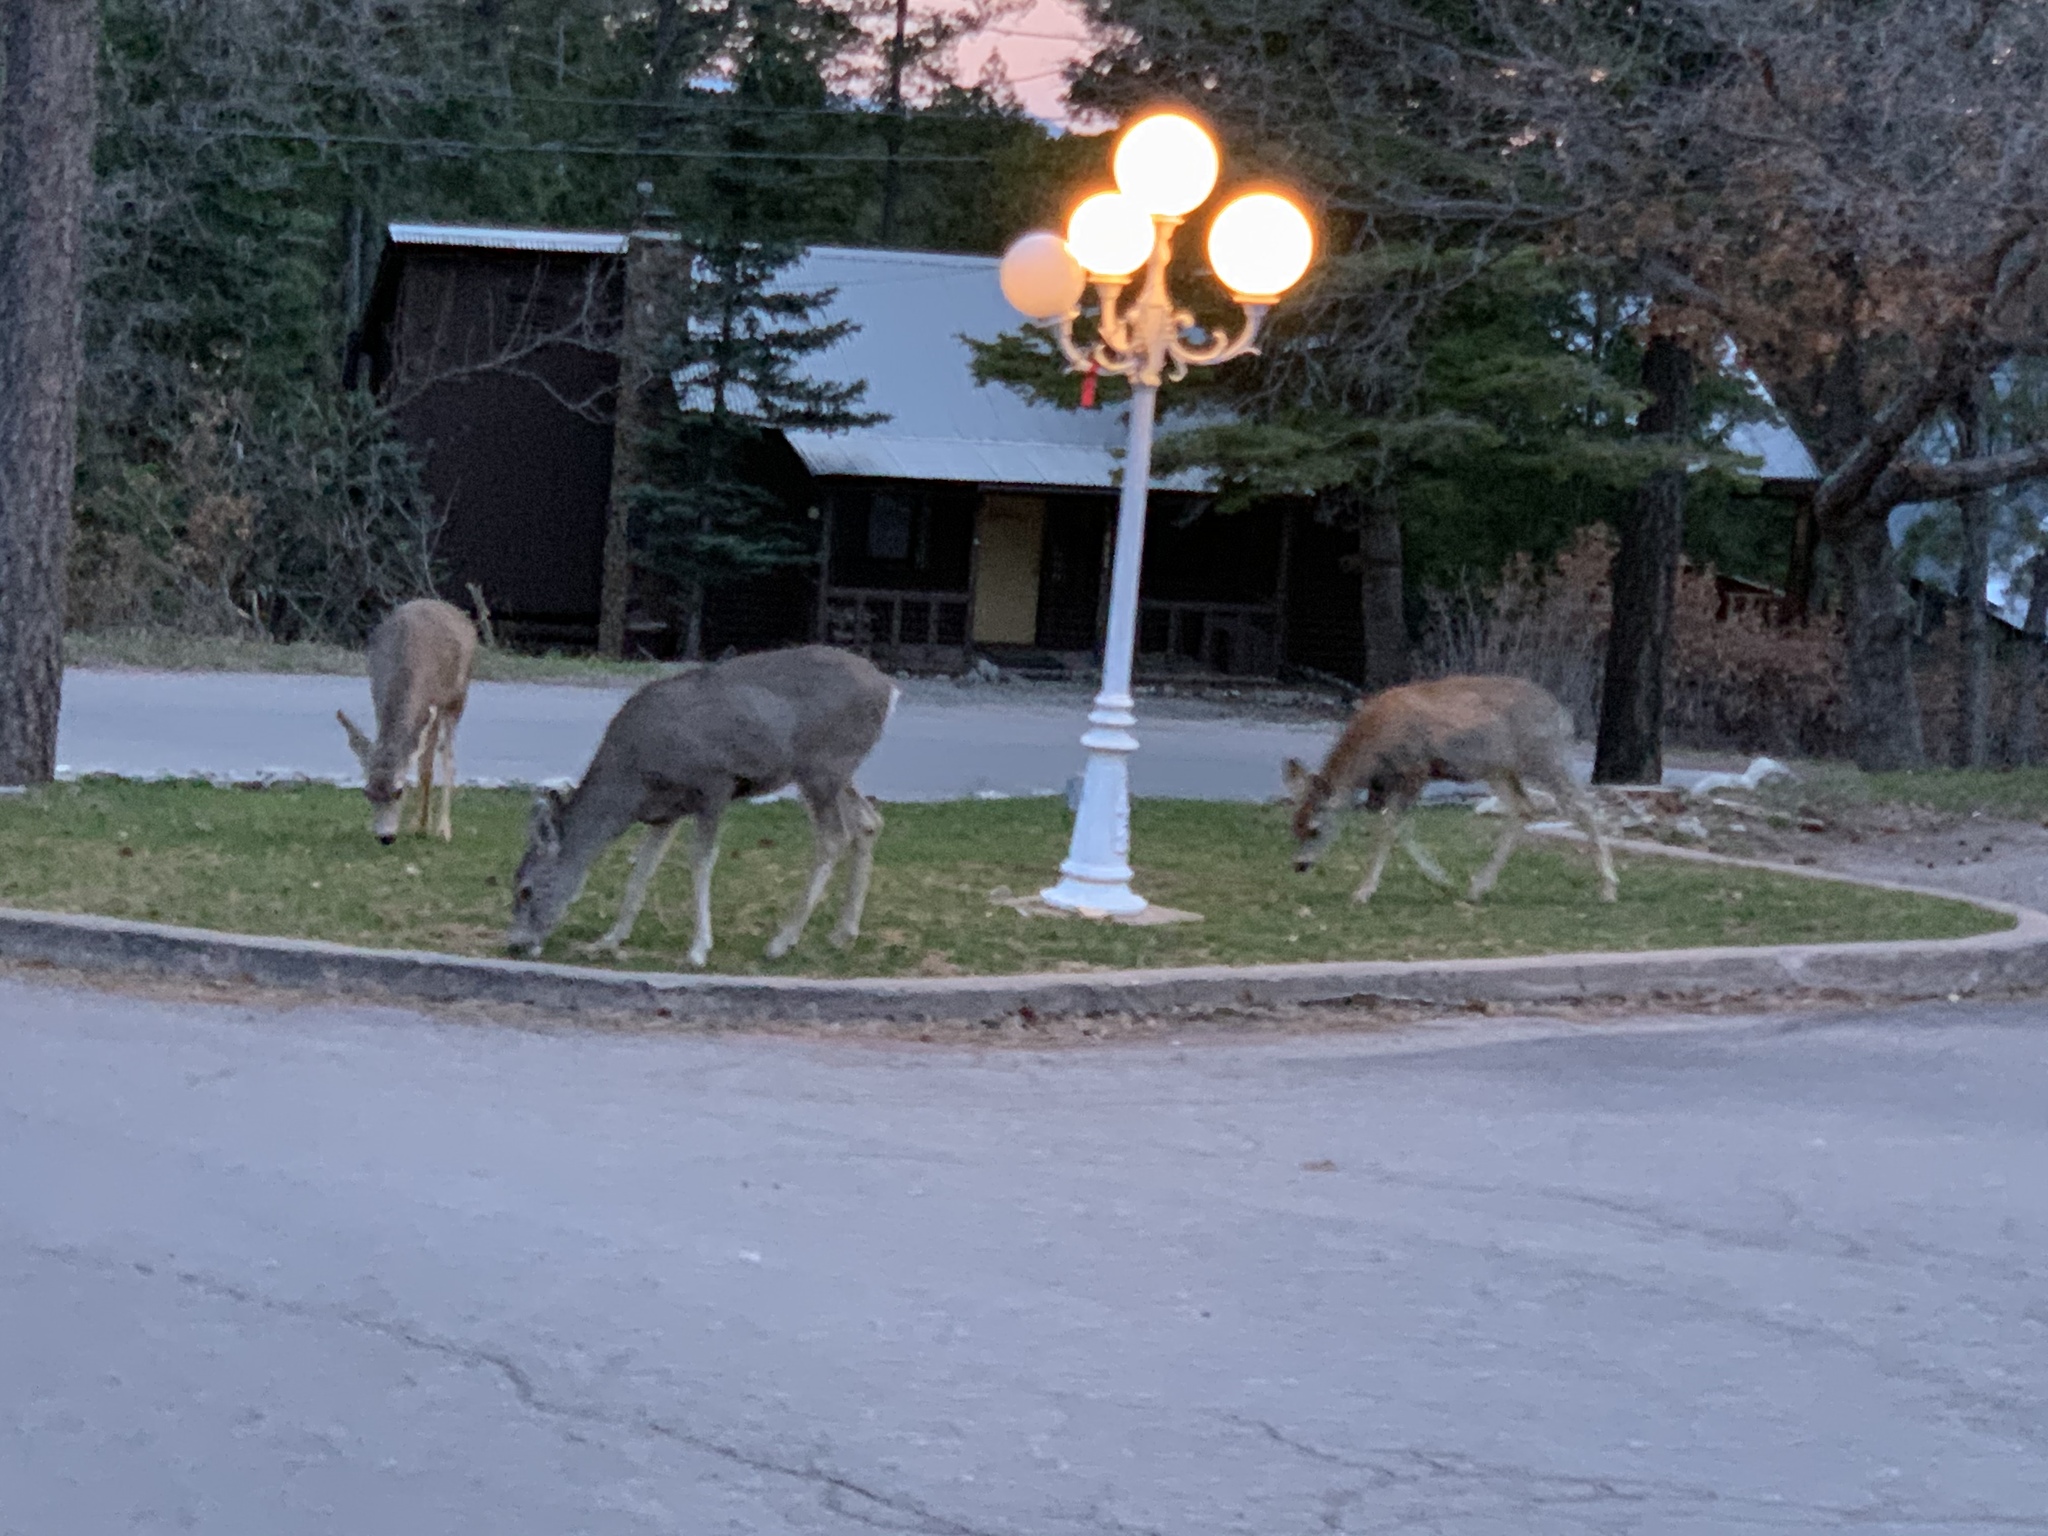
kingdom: Animalia
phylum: Chordata
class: Mammalia
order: Artiodactyla
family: Cervidae
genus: Odocoileus
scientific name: Odocoileus hemionus
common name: Mule deer
